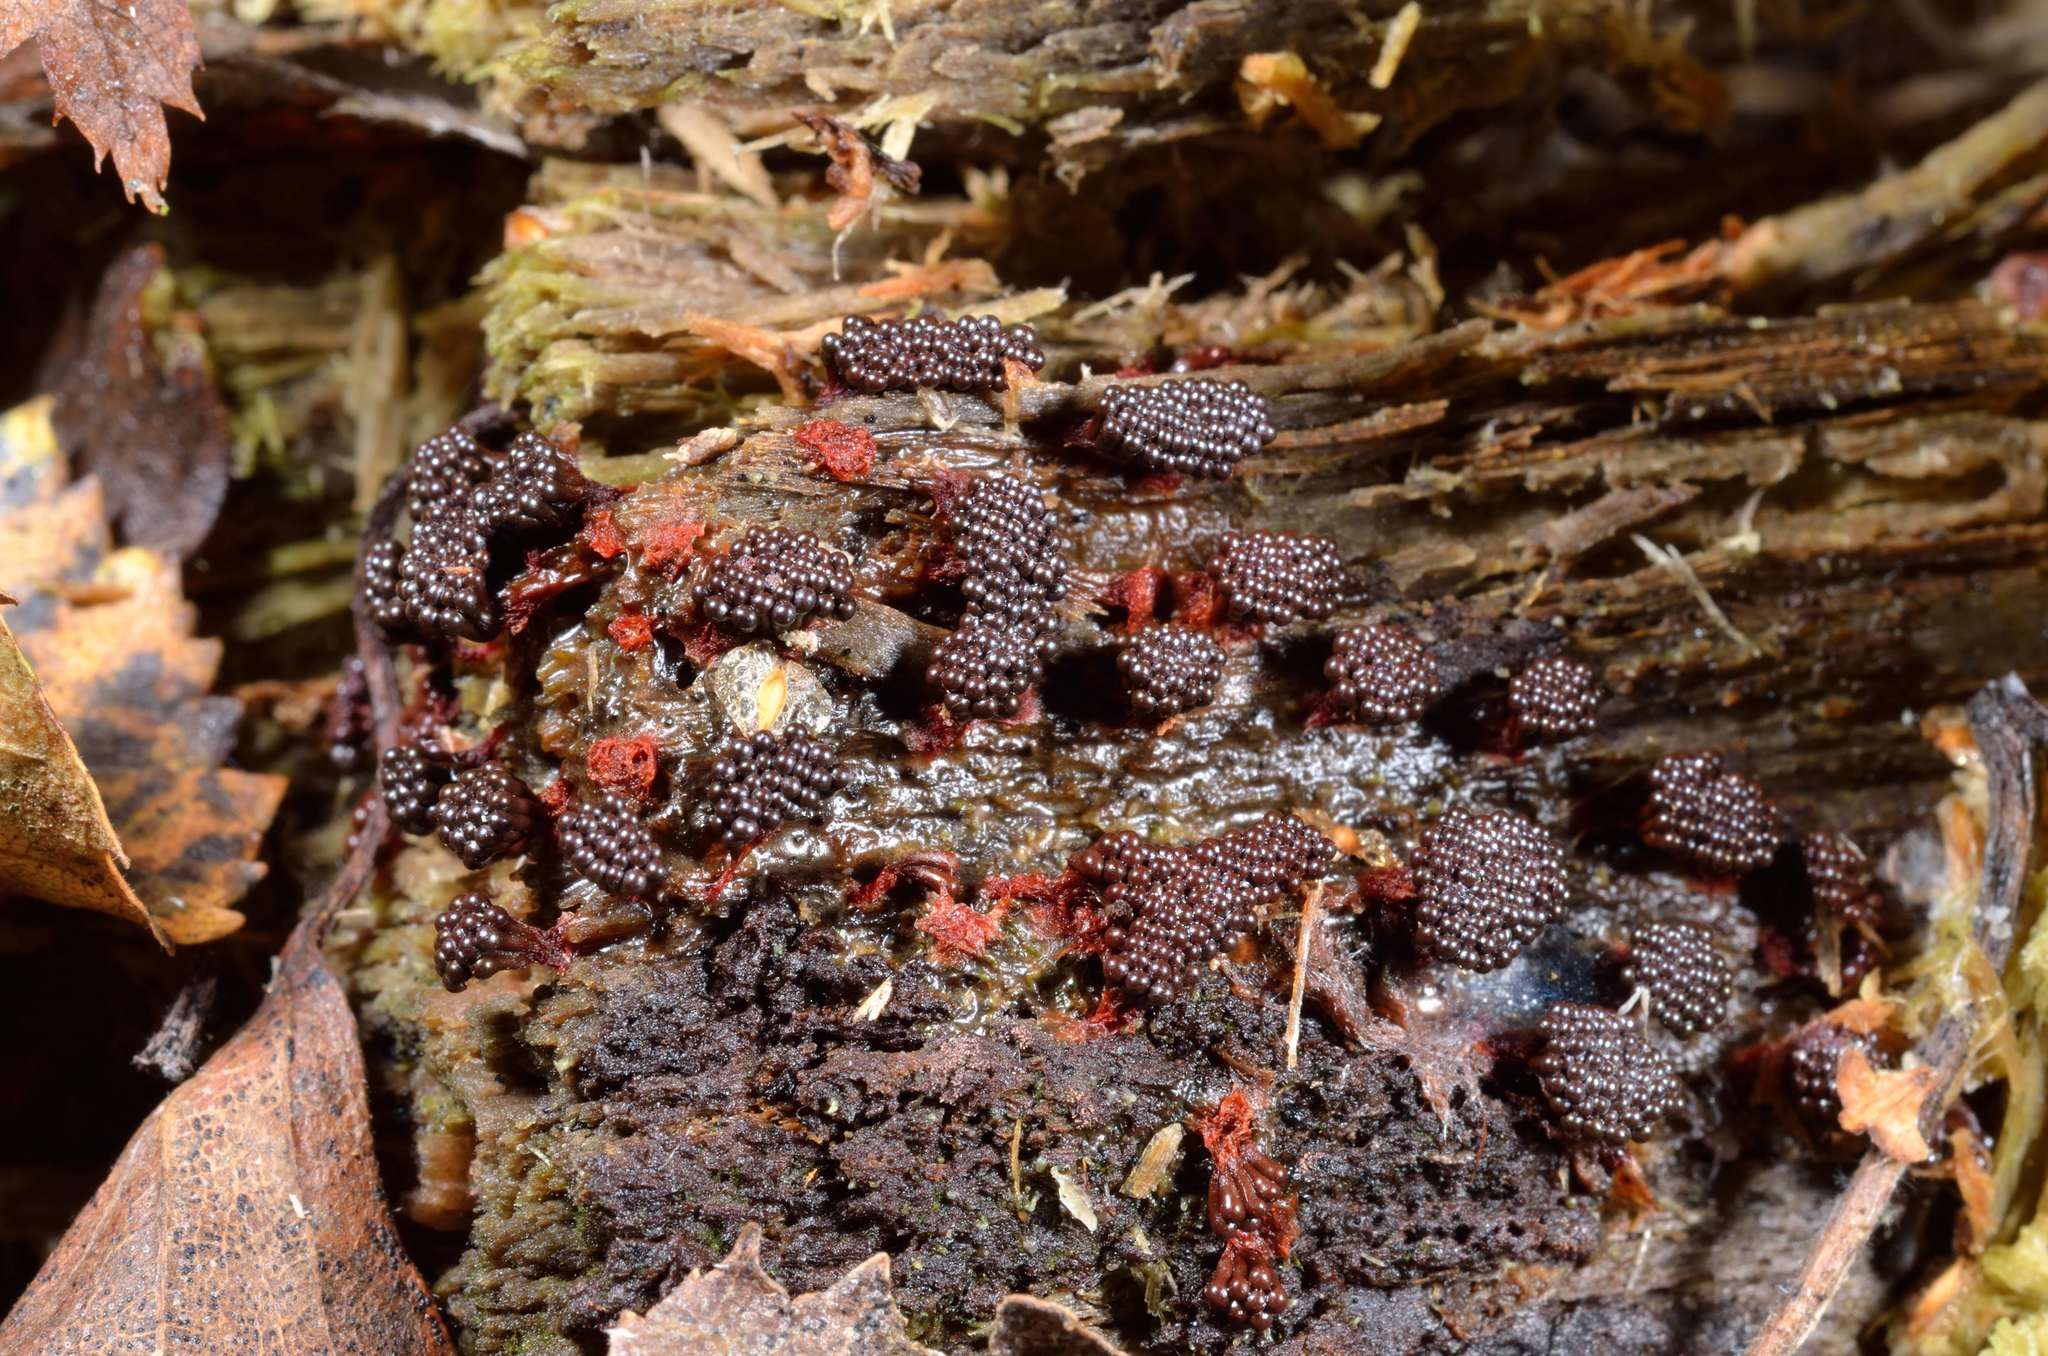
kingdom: Protozoa
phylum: Mycetozoa
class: Myxomycetes
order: Trichiales
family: Trichiaceae
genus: Metatrichia
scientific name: Metatrichia vesparia
